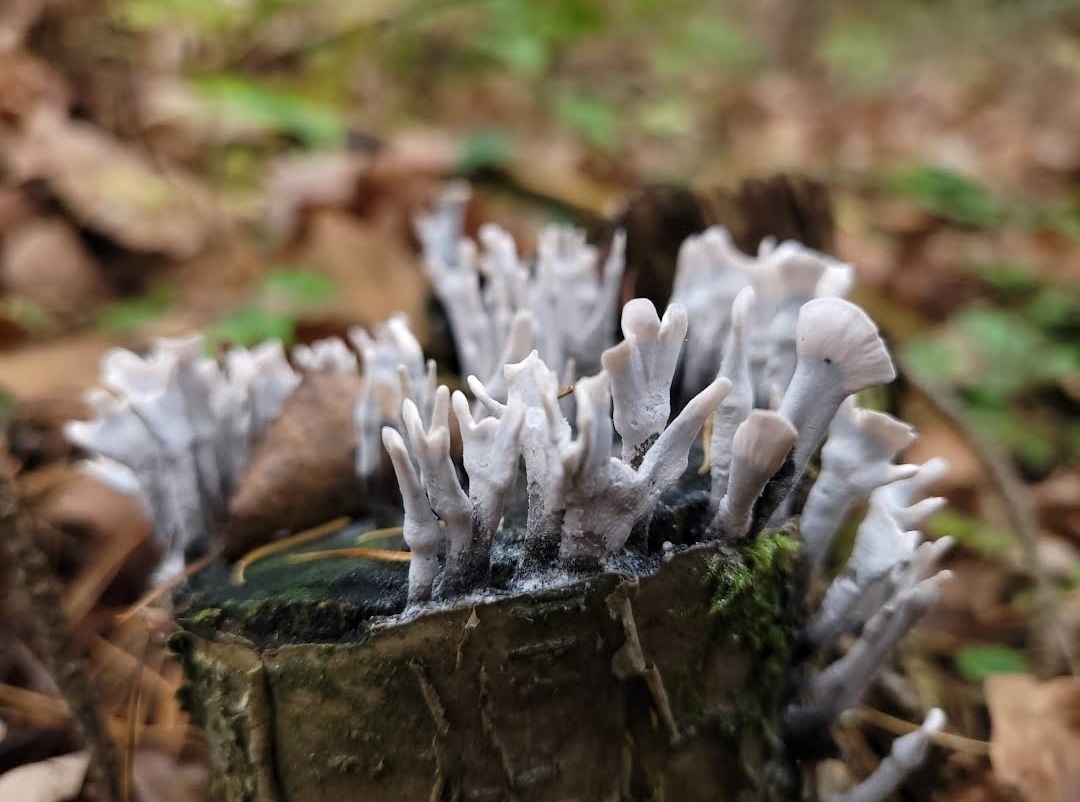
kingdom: Fungi
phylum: Ascomycota
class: Sordariomycetes
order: Xylariales
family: Xylariaceae
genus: Xylaria
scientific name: Xylaria hypoxylon
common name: Candle-snuff fungus
